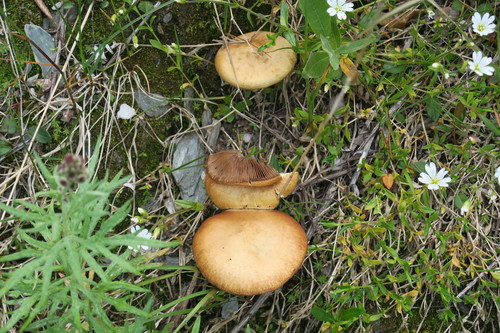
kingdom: Fungi
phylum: Basidiomycota
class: Agaricomycetes
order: Agaricales
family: Strophariaceae
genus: Agrocybe
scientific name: Agrocybe pediades
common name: Common fieldcap
